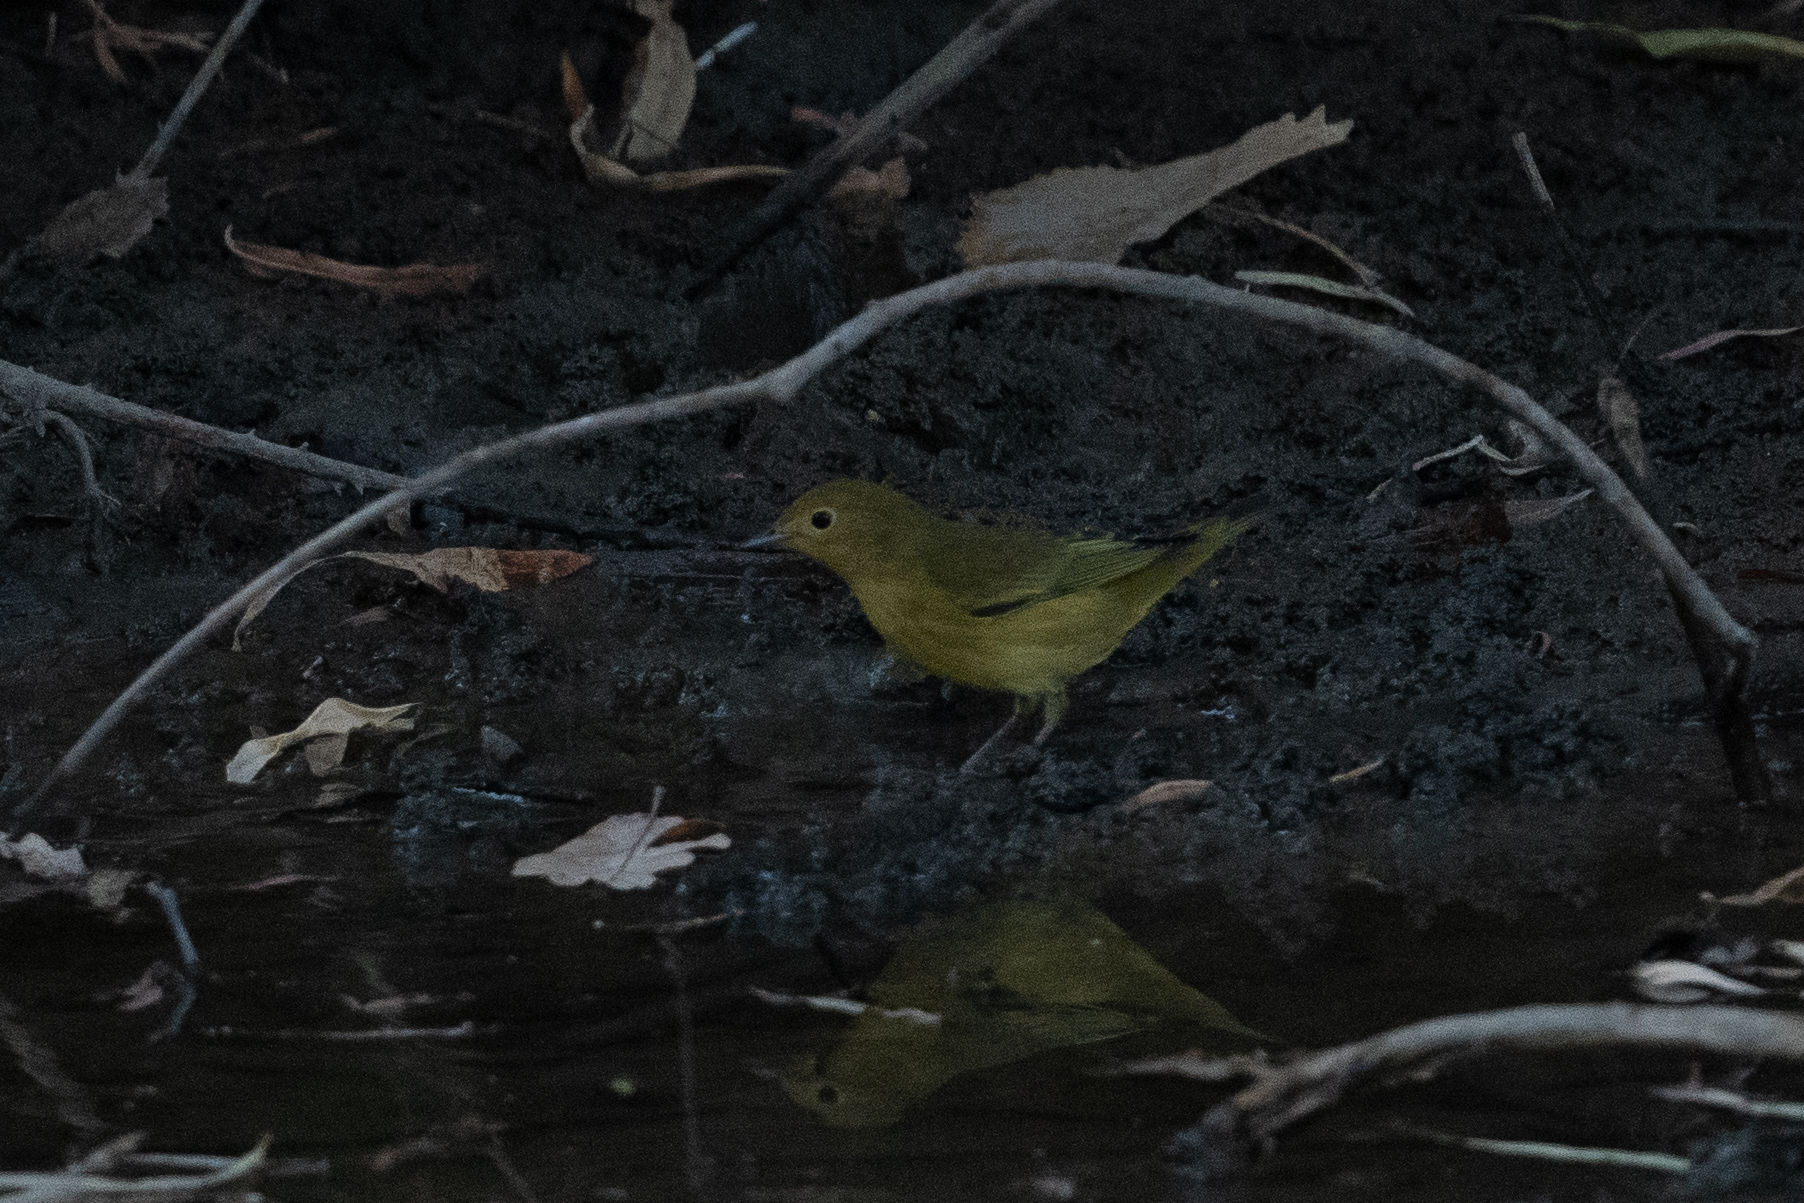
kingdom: Animalia
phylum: Chordata
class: Aves
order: Passeriformes
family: Parulidae
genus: Setophaga
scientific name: Setophaga petechia
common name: Yellow warbler
